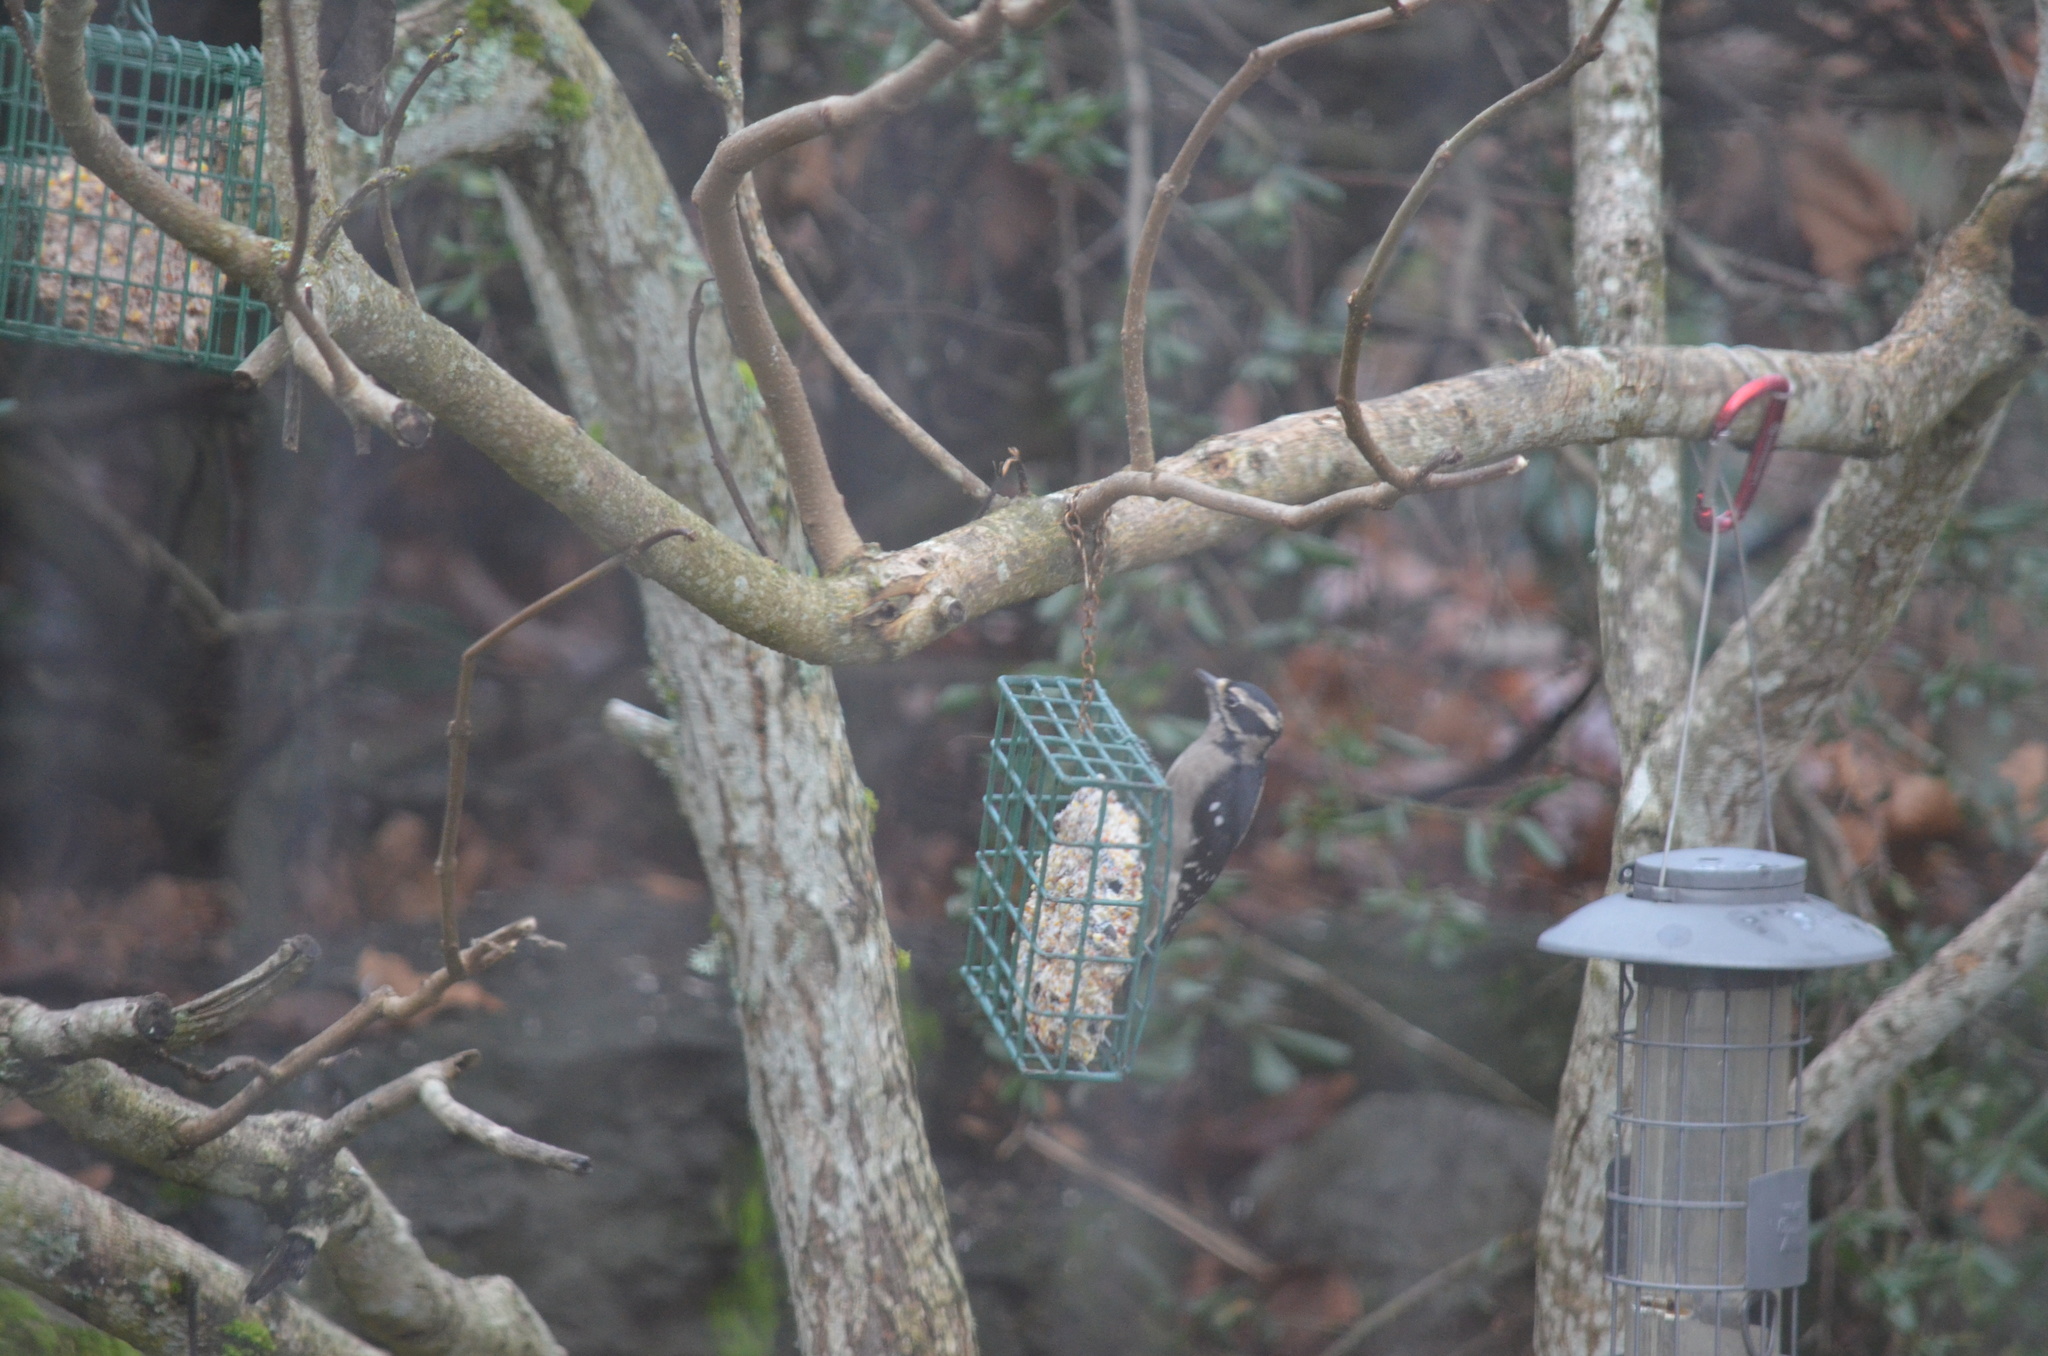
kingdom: Animalia
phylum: Chordata
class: Aves
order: Piciformes
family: Picidae
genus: Dryobates
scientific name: Dryobates pubescens
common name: Downy woodpecker
